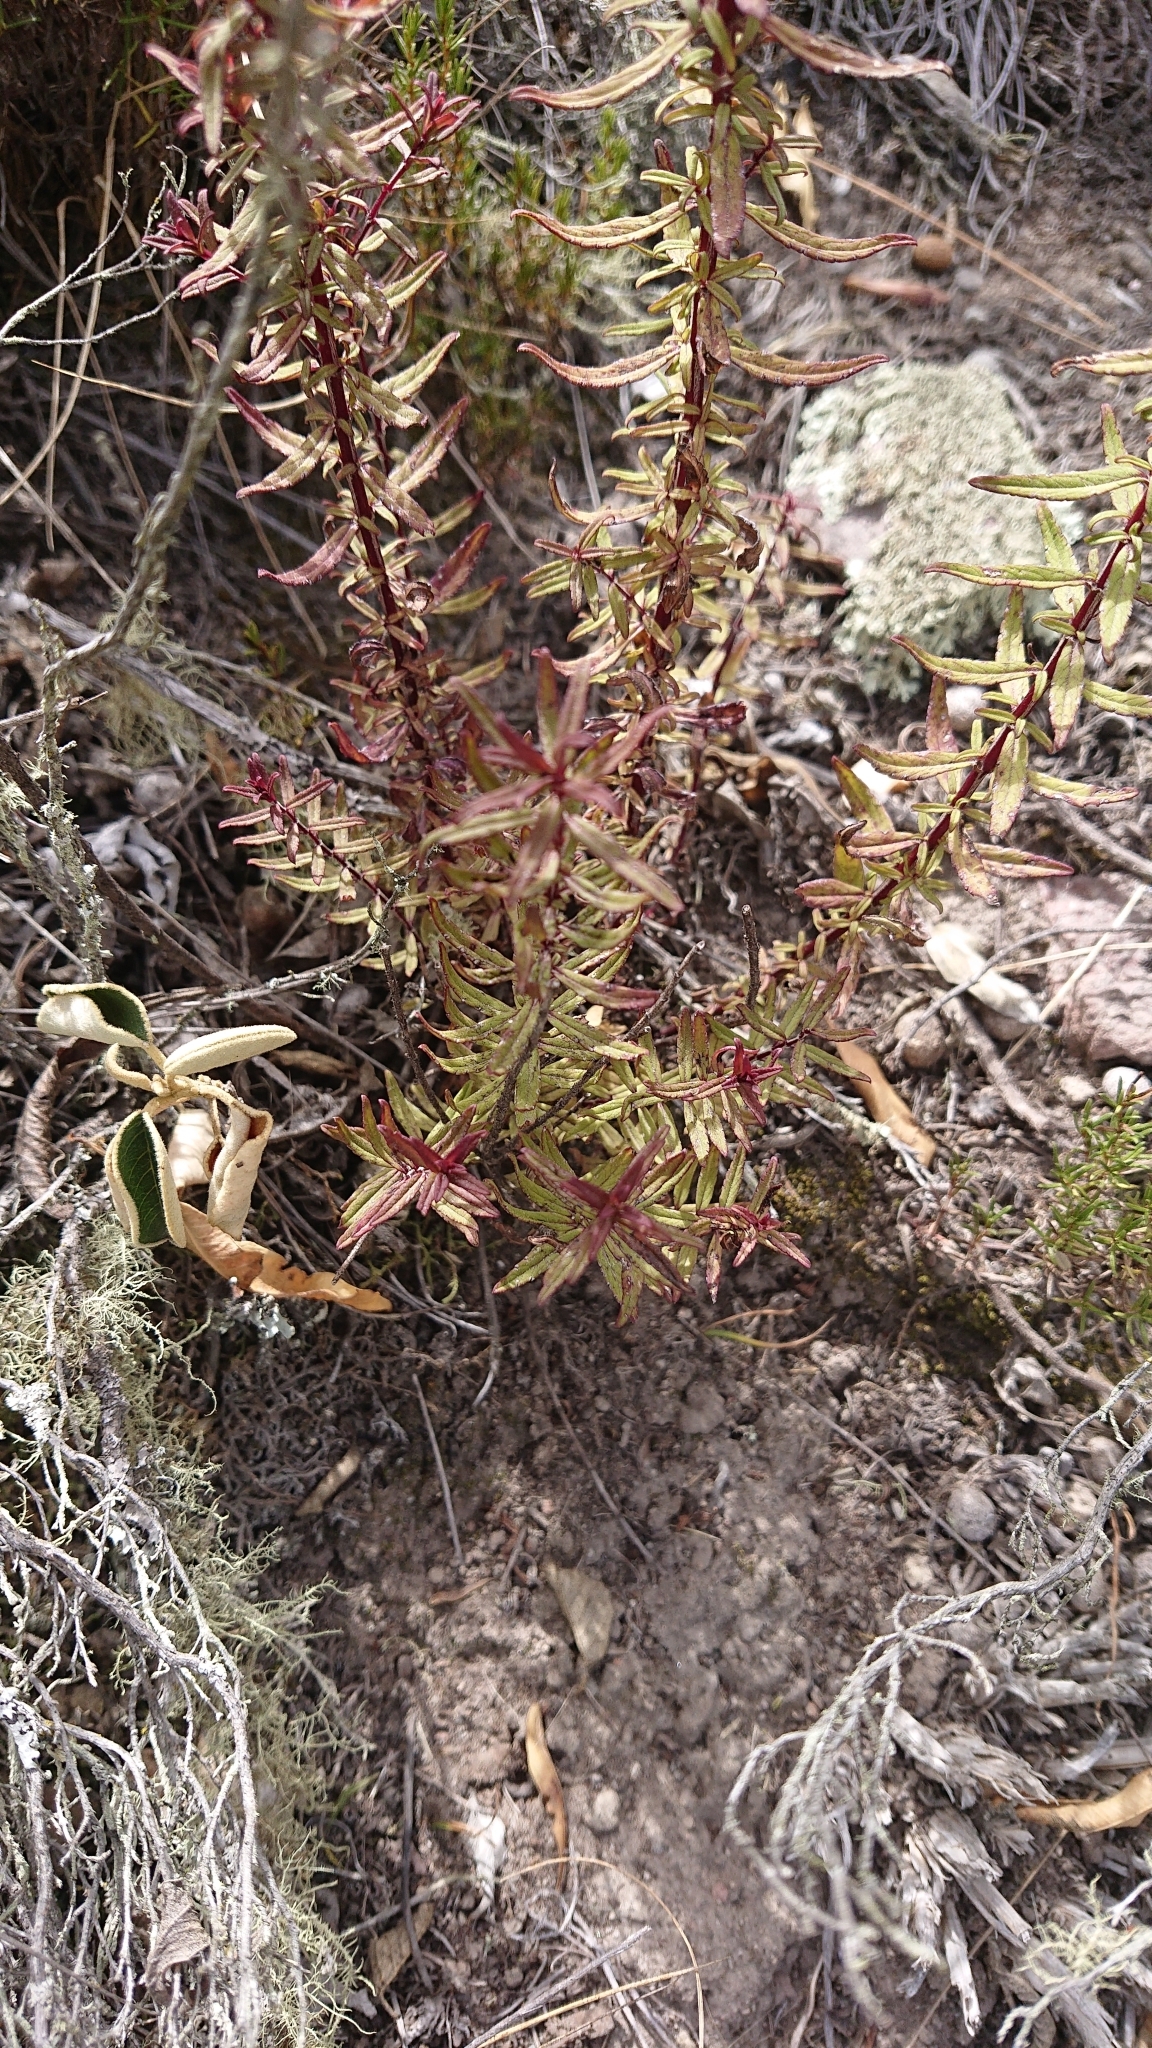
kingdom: Plantae
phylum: Tracheophyta
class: Magnoliopsida
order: Lamiales
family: Orobanchaceae
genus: Lamourouxia
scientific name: Lamourouxia virgata
